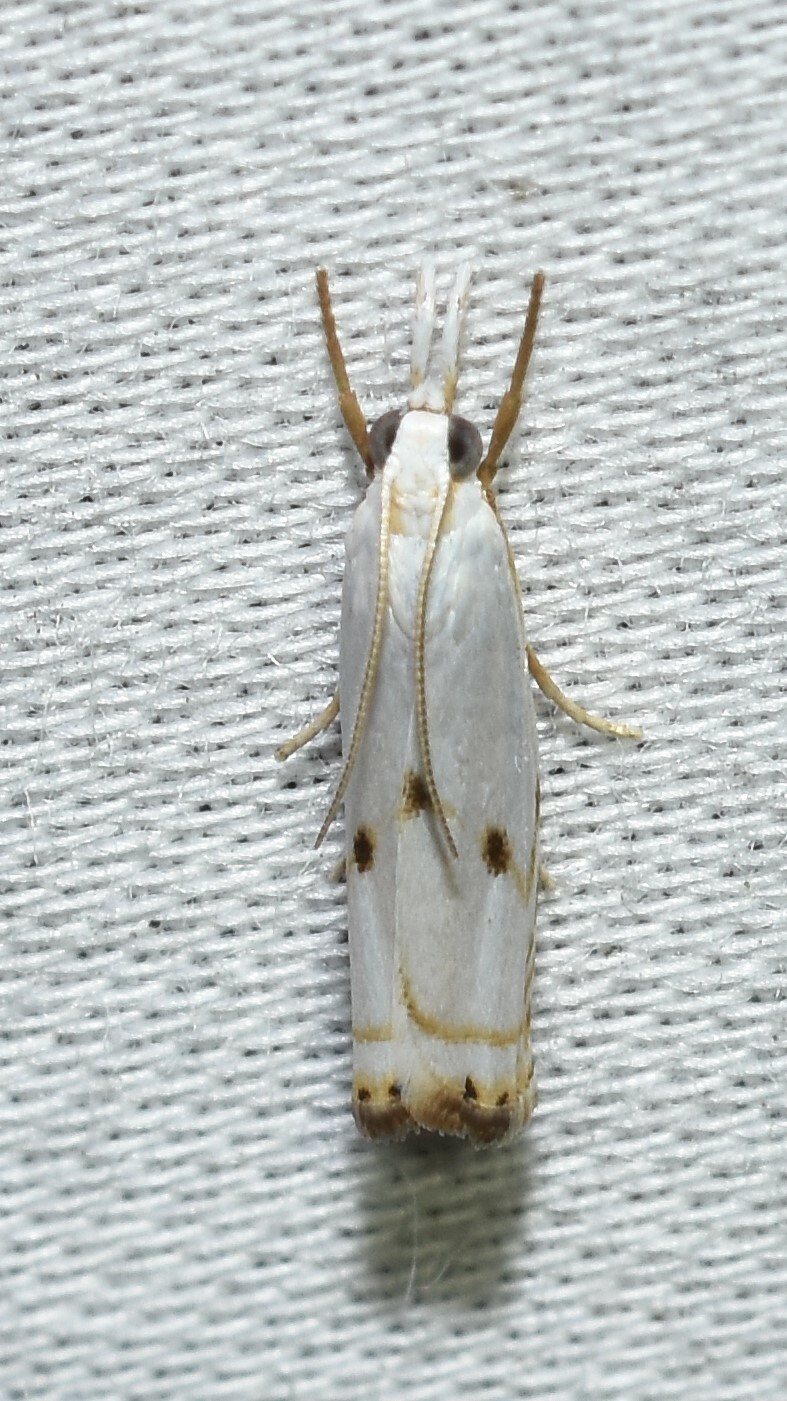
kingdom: Animalia
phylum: Arthropoda
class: Insecta
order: Lepidoptera
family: Crambidae
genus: Microcrambus
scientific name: Microcrambus biguttellus
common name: Gold-stripe grass-veneer moth
